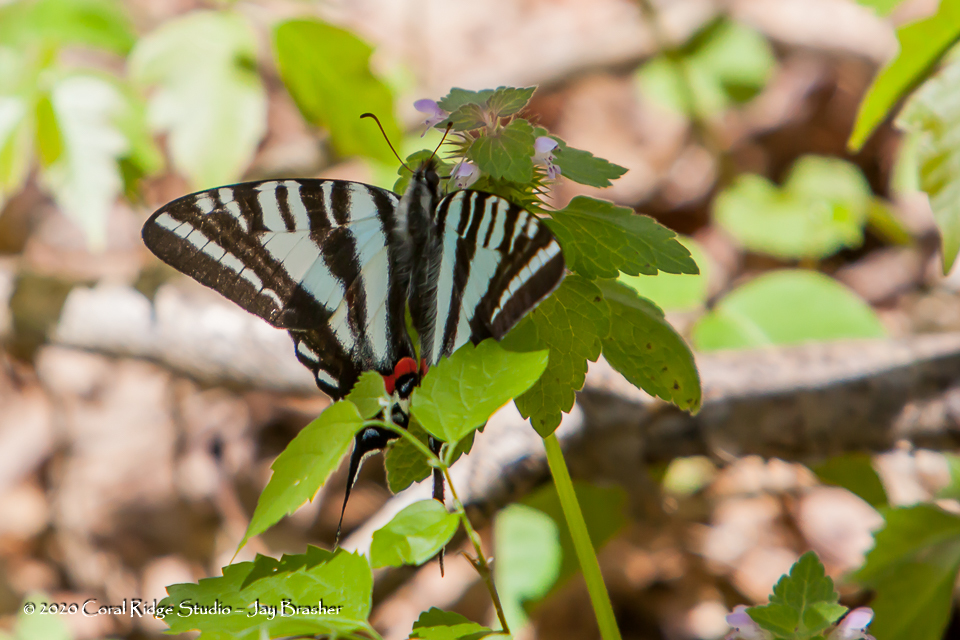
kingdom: Animalia
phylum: Arthropoda
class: Insecta
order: Lepidoptera
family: Papilionidae
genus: Protographium
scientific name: Protographium marcellus
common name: Zebra swallowtail
